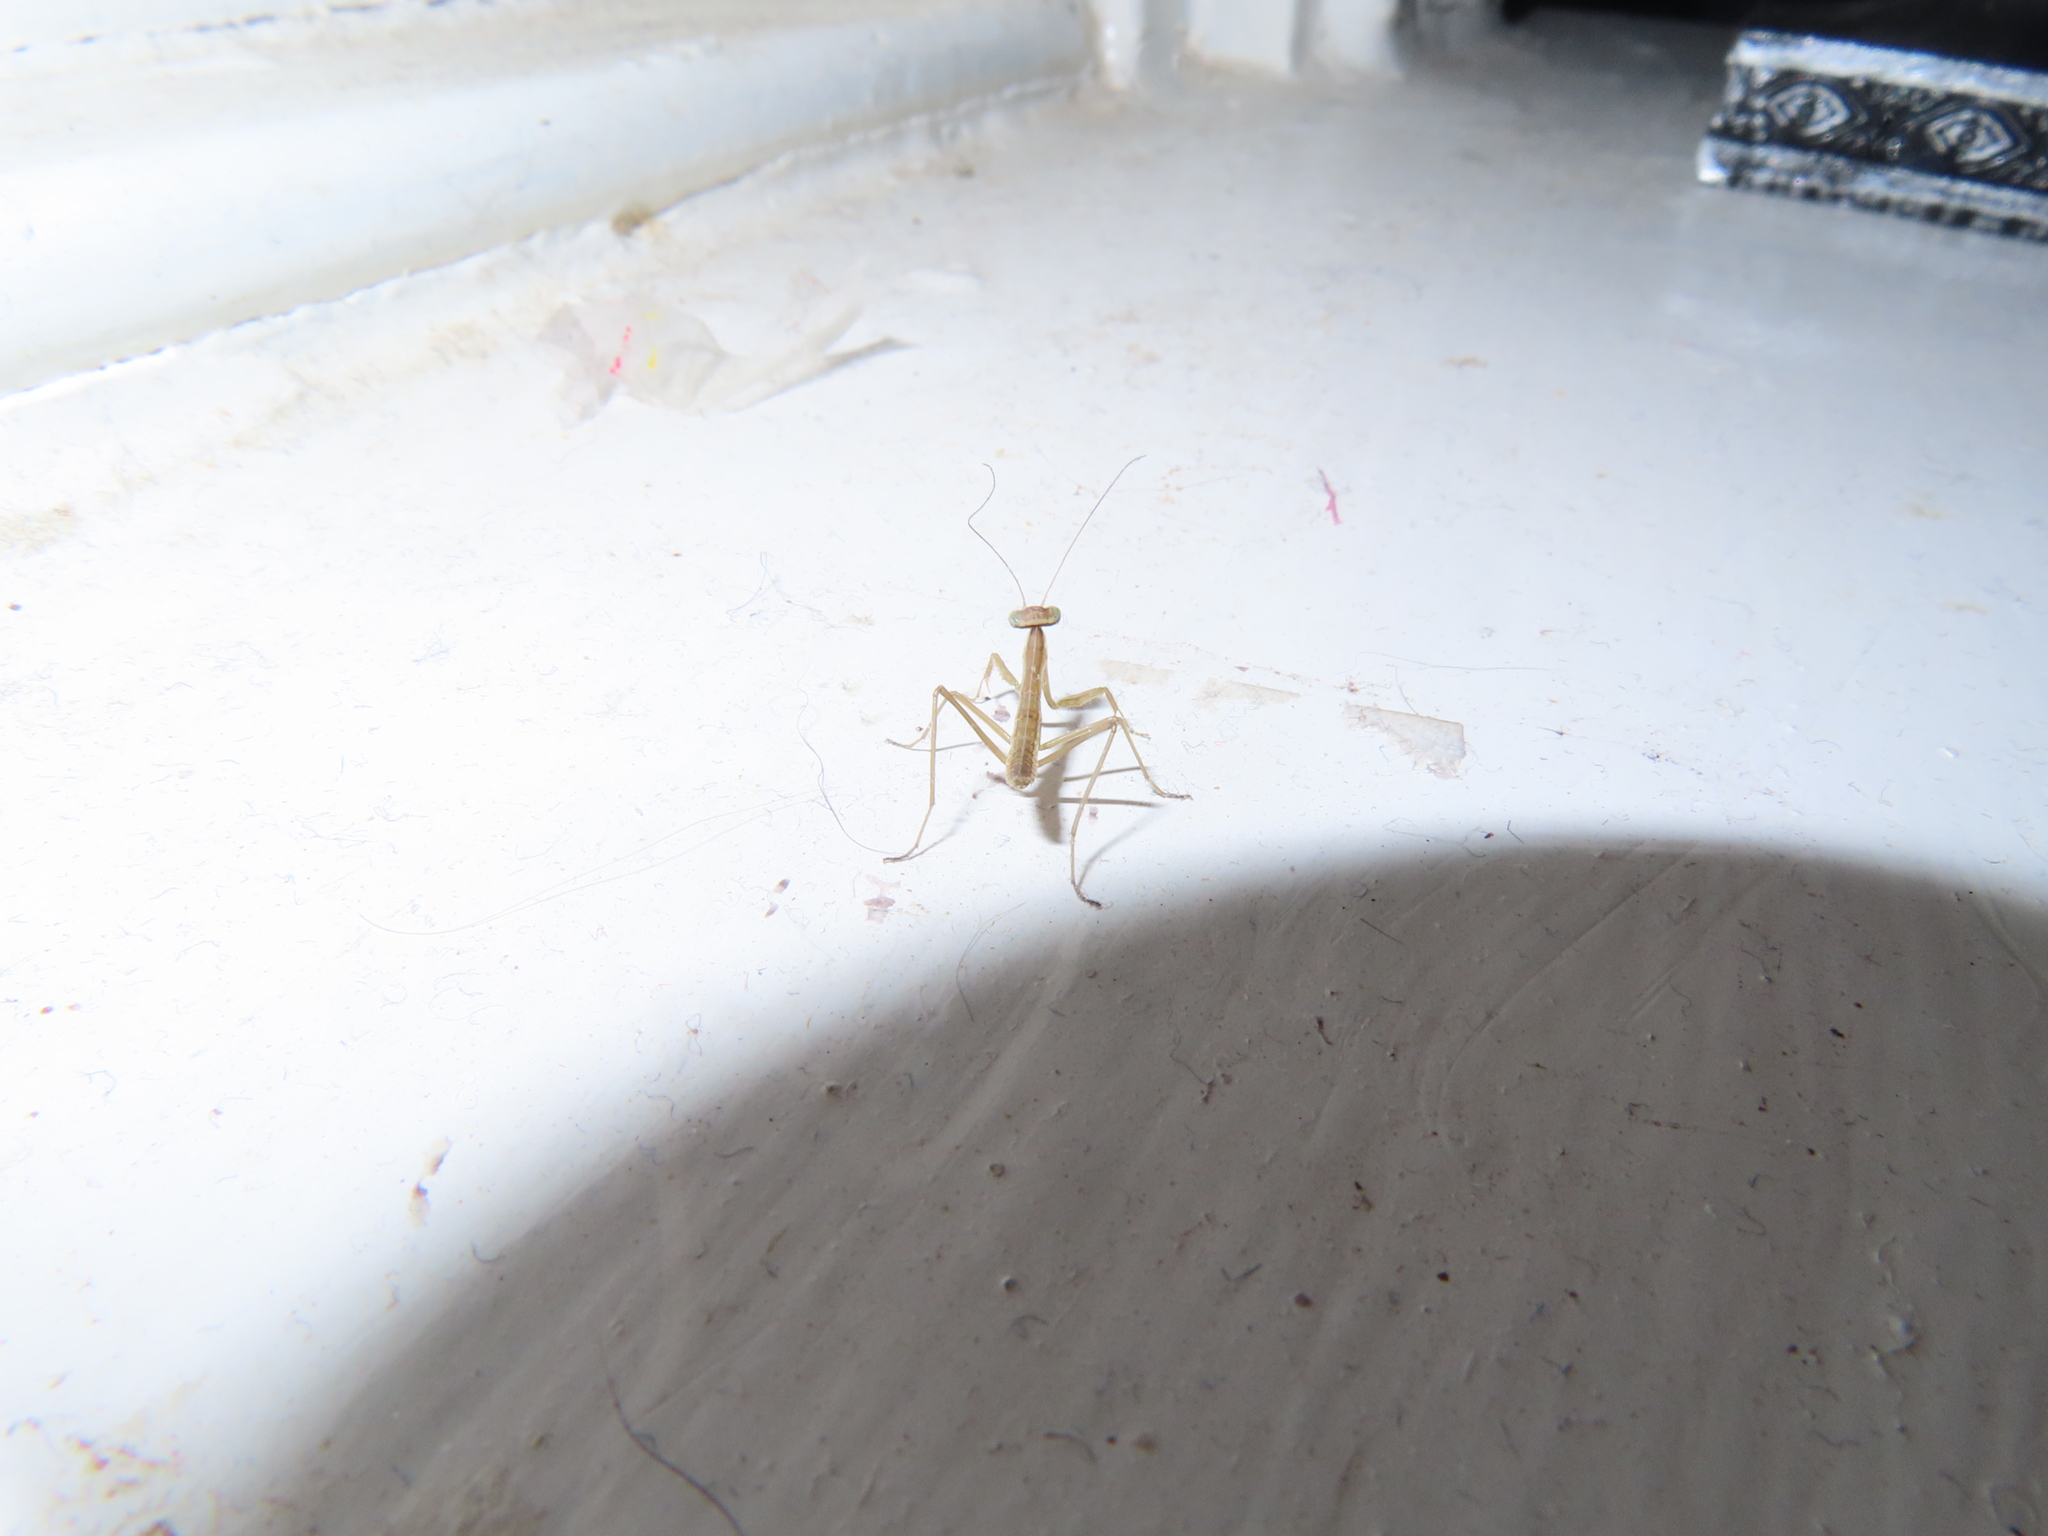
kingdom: Animalia
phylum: Arthropoda
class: Insecta
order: Mantodea
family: Mantidae
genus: Tenodera
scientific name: Tenodera sinensis
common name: Chinese mantis
